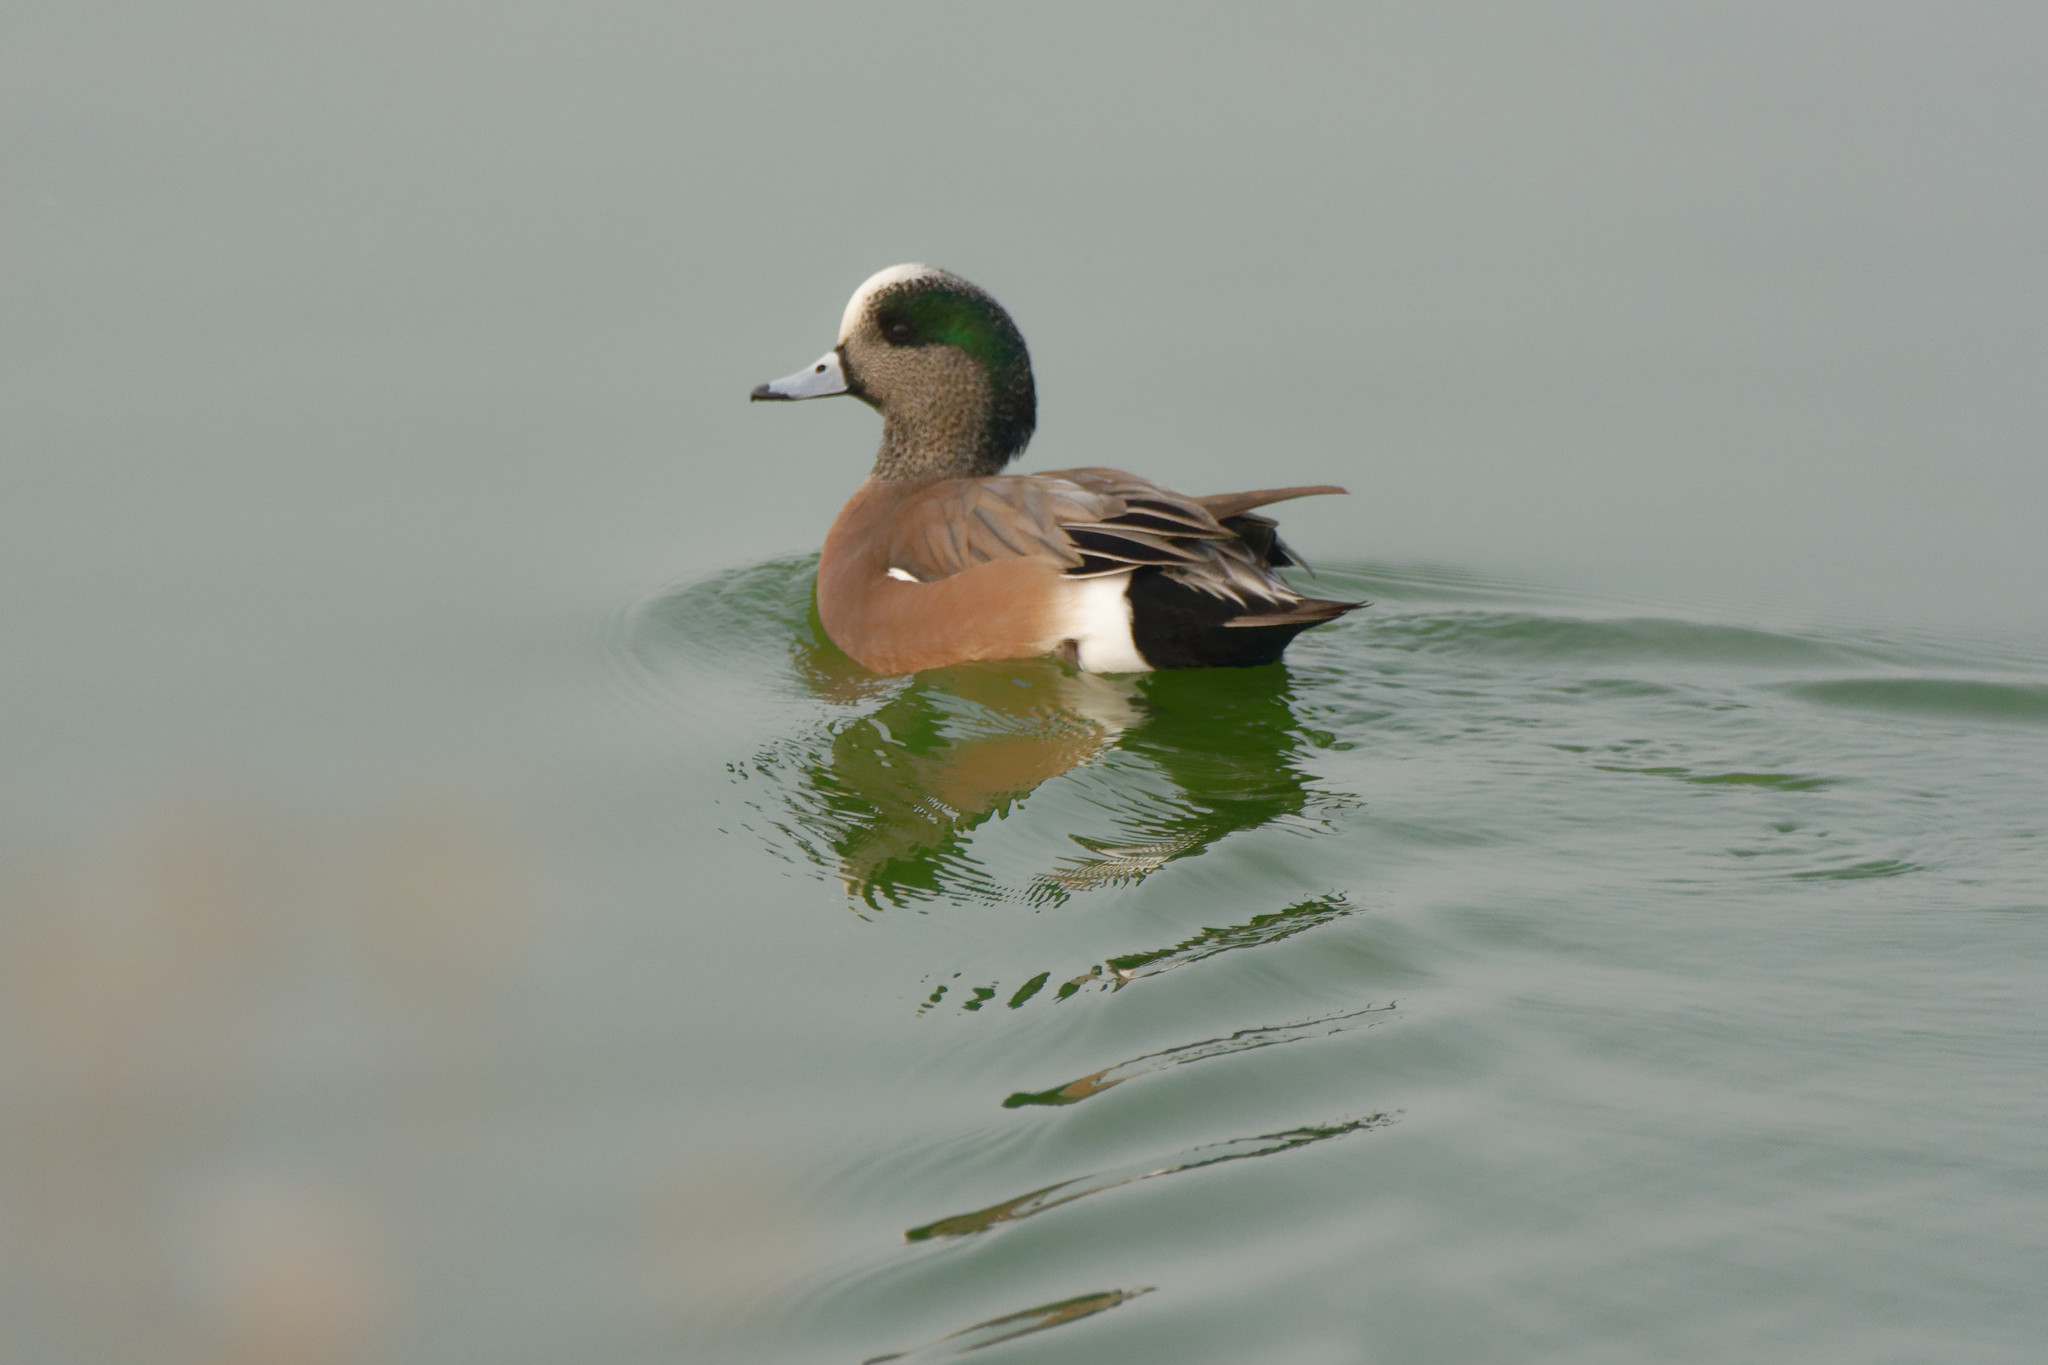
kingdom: Animalia
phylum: Chordata
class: Aves
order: Anseriformes
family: Anatidae
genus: Mareca
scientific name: Mareca americana
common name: American wigeon
